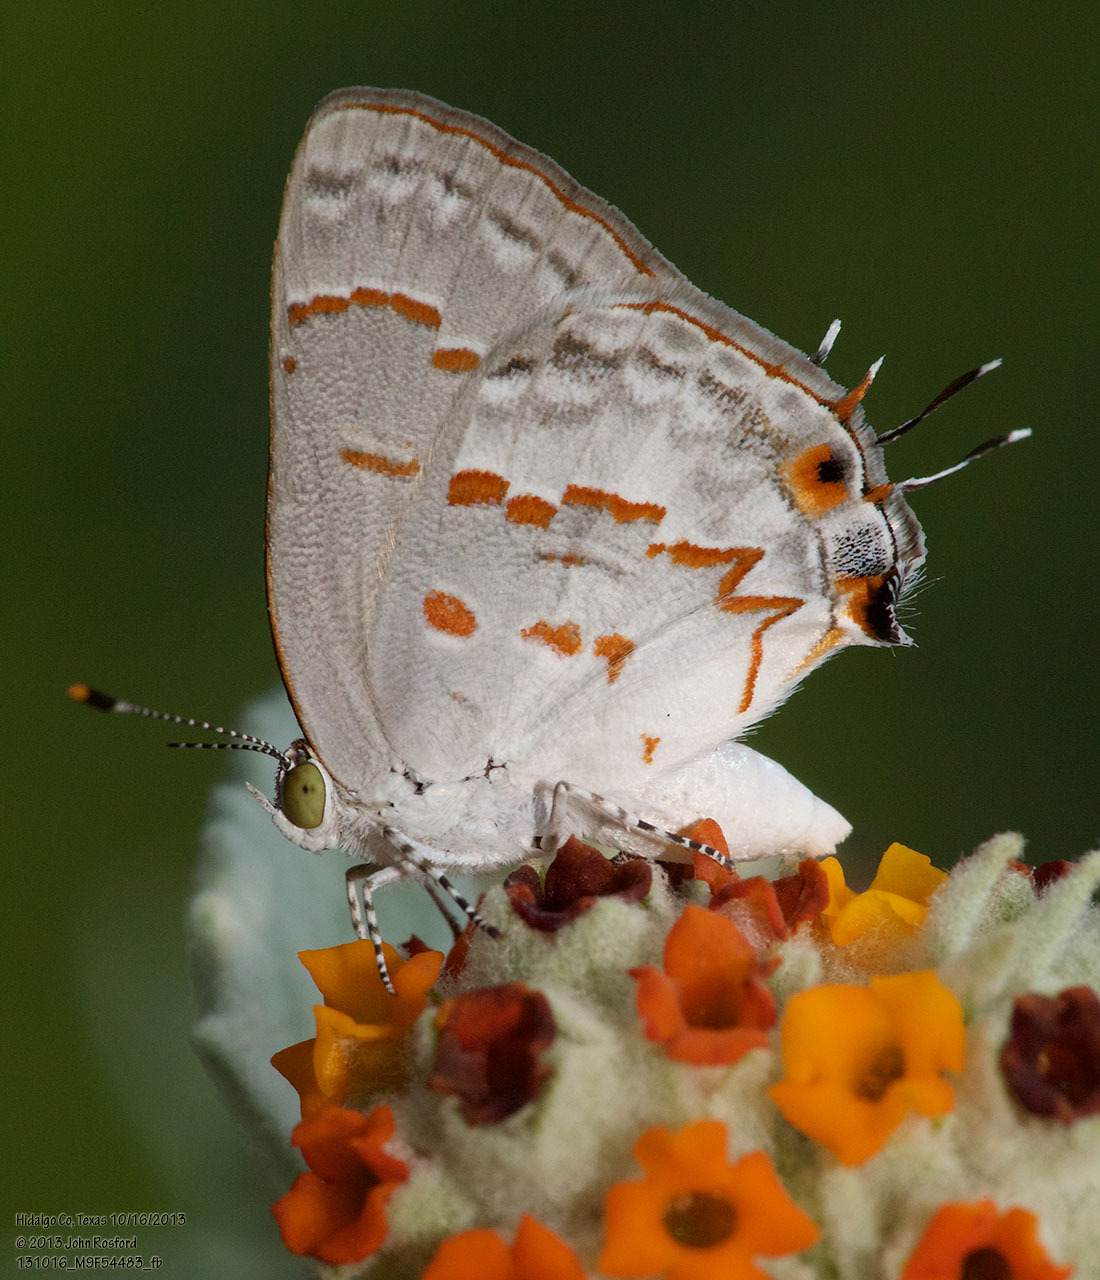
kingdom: Animalia
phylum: Arthropoda
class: Insecta
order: Lepidoptera
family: Lycaenidae
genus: Ministrymon
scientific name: Ministrymon clytie
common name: Clytie ministreak
